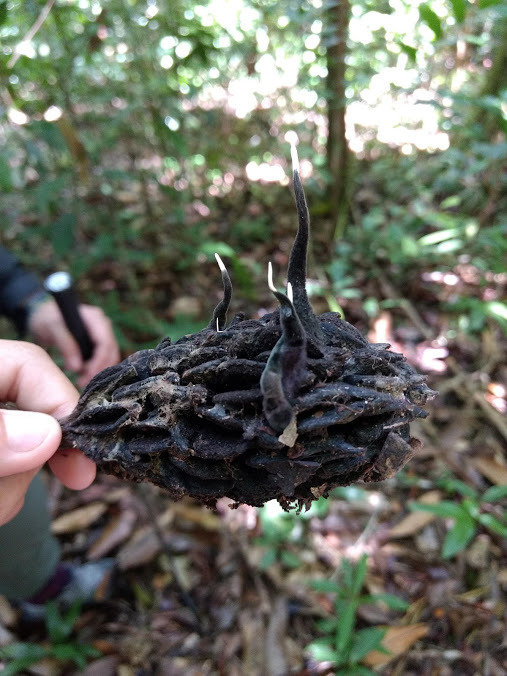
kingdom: Fungi
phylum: Ascomycota
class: Sordariomycetes
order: Xylariales
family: Xylariaceae
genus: Xylaria
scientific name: Xylaria magnoliae
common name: Magnolia-cone xylaria
